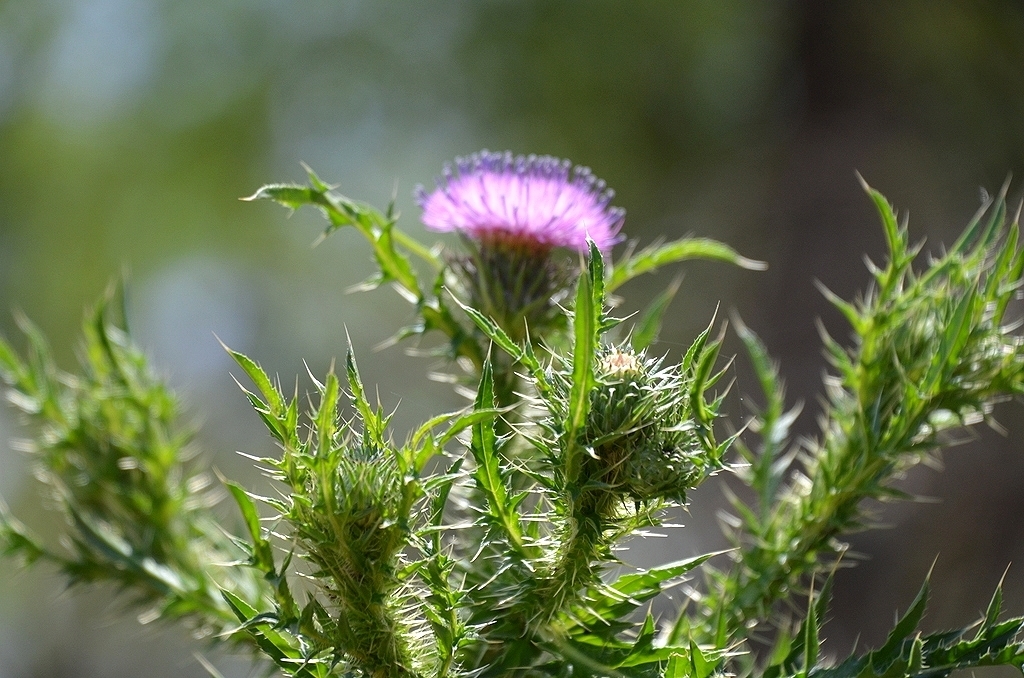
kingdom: Plantae
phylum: Tracheophyta
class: Magnoliopsida
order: Asterales
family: Asteraceae
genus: Carduus
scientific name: Carduus acanthoides
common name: Plumeless thistle
